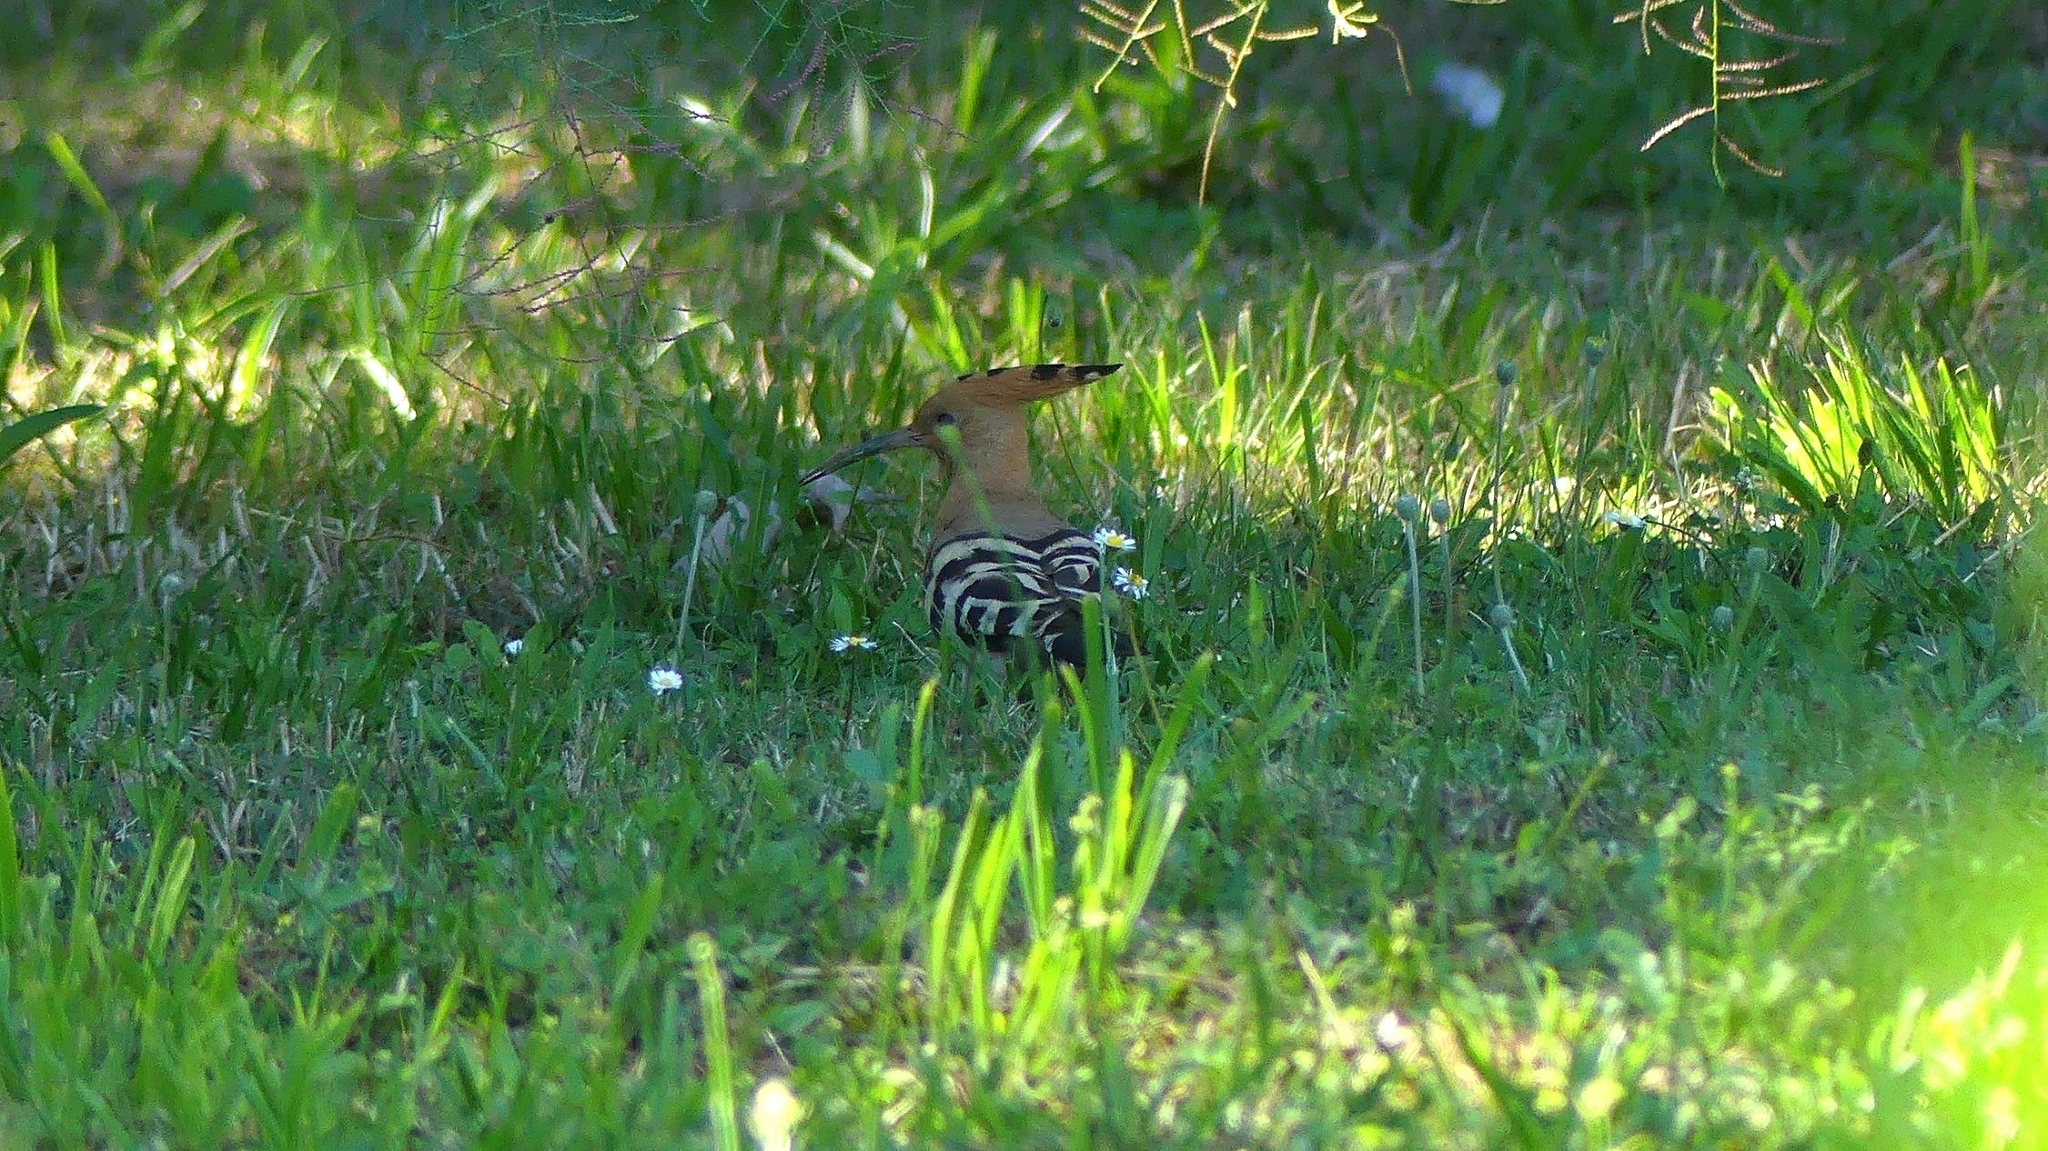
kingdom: Animalia
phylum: Chordata
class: Aves
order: Bucerotiformes
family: Upupidae
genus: Upupa
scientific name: Upupa epops
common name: Eurasian hoopoe
